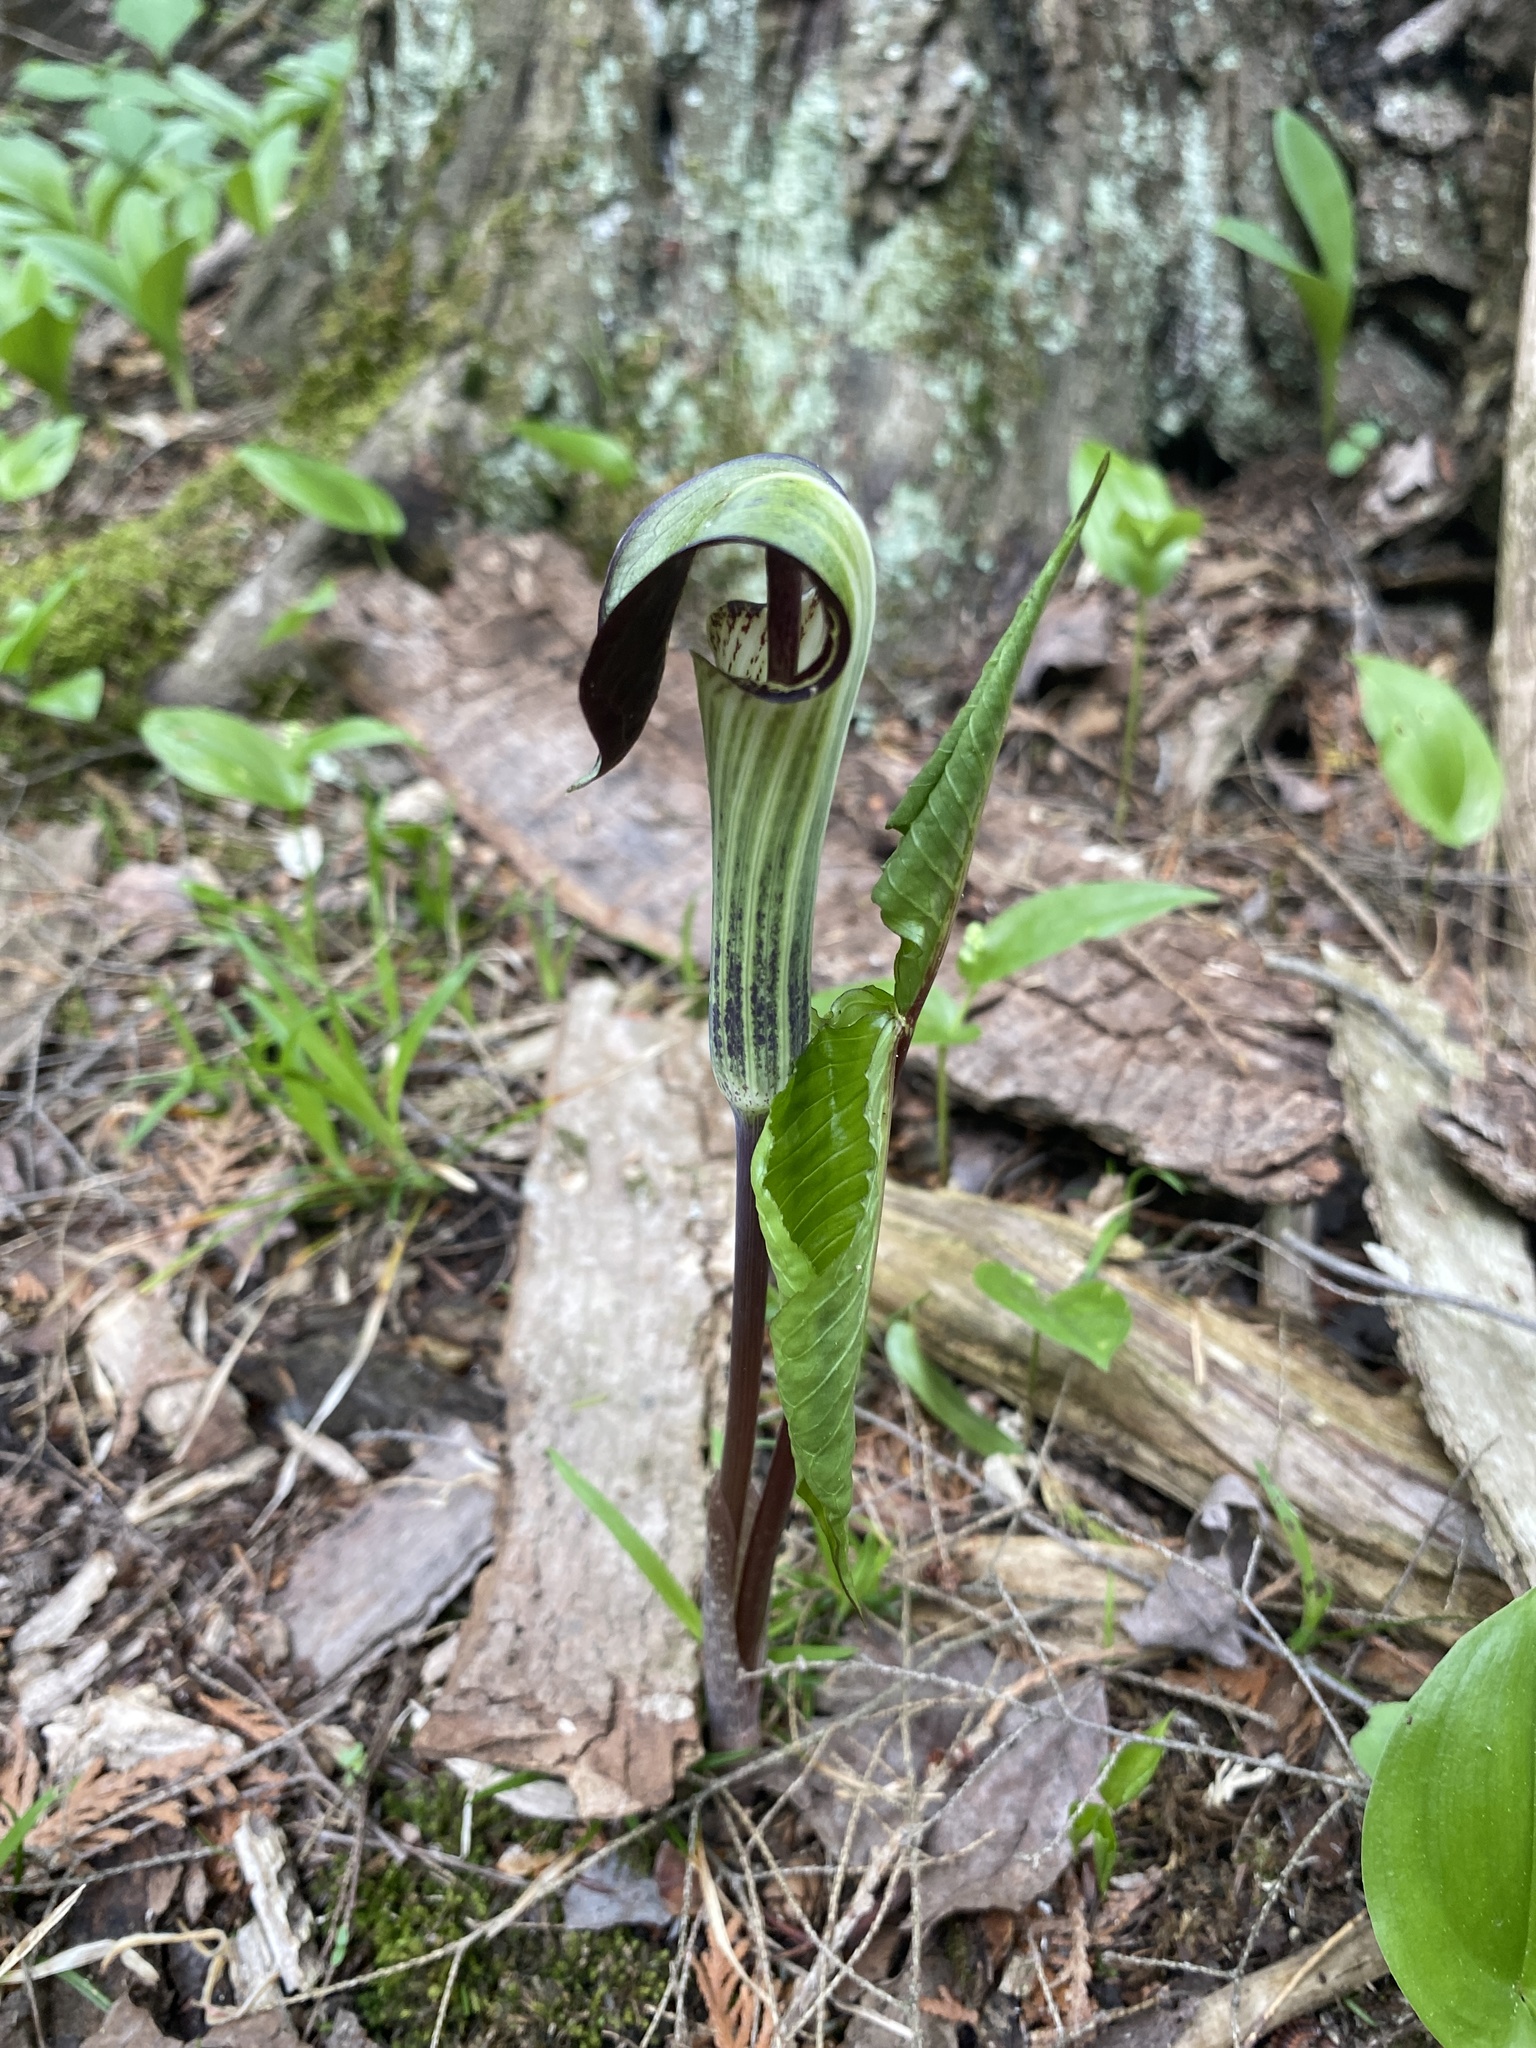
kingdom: Plantae
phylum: Tracheophyta
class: Liliopsida
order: Alismatales
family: Araceae
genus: Arisaema
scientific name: Arisaema triphyllum
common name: Jack-in-the-pulpit
